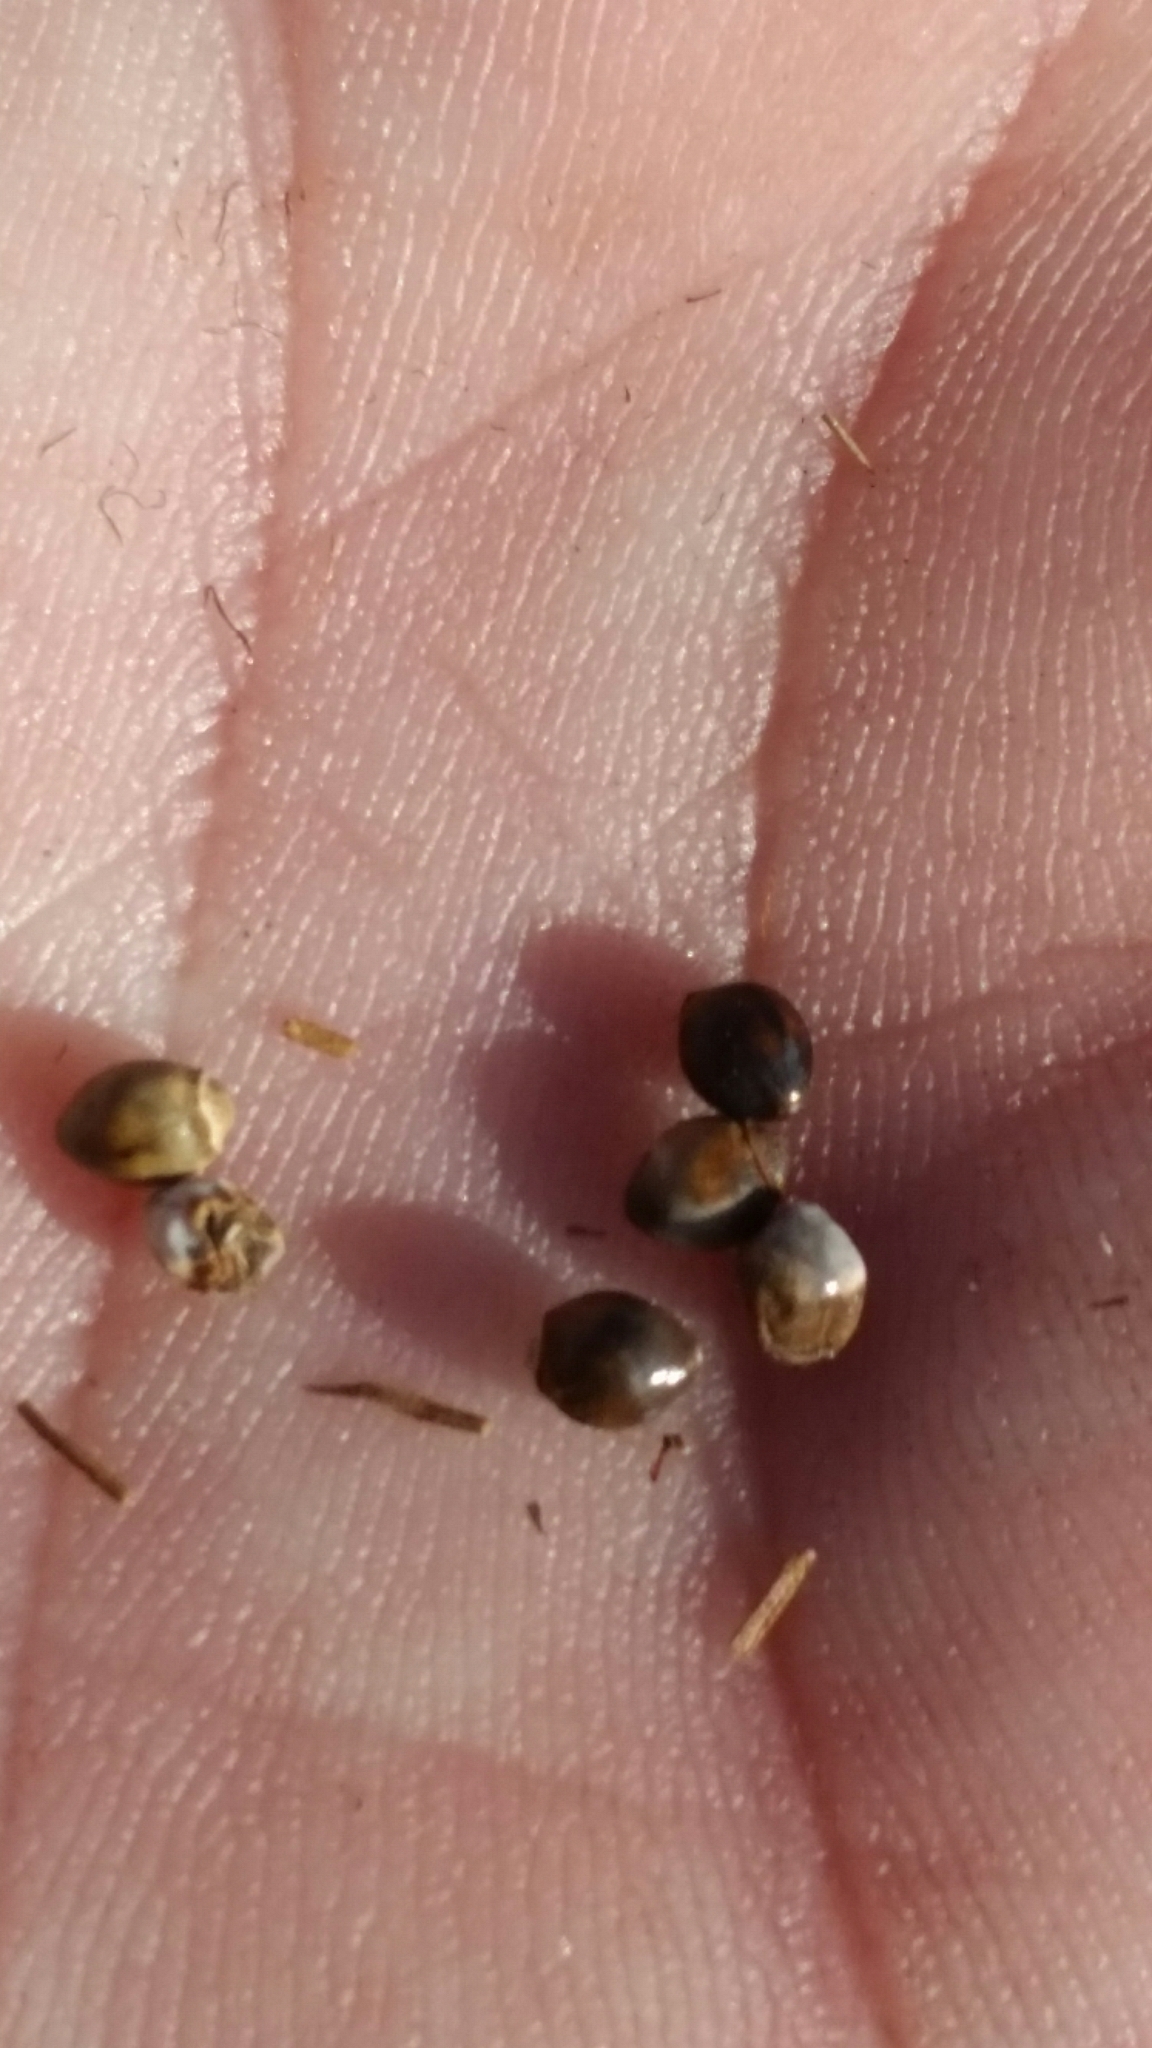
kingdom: Plantae
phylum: Tracheophyta
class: Liliopsida
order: Poales
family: Cyperaceae
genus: Scleria
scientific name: Scleria lacustris
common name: Lakeshore nutrush
